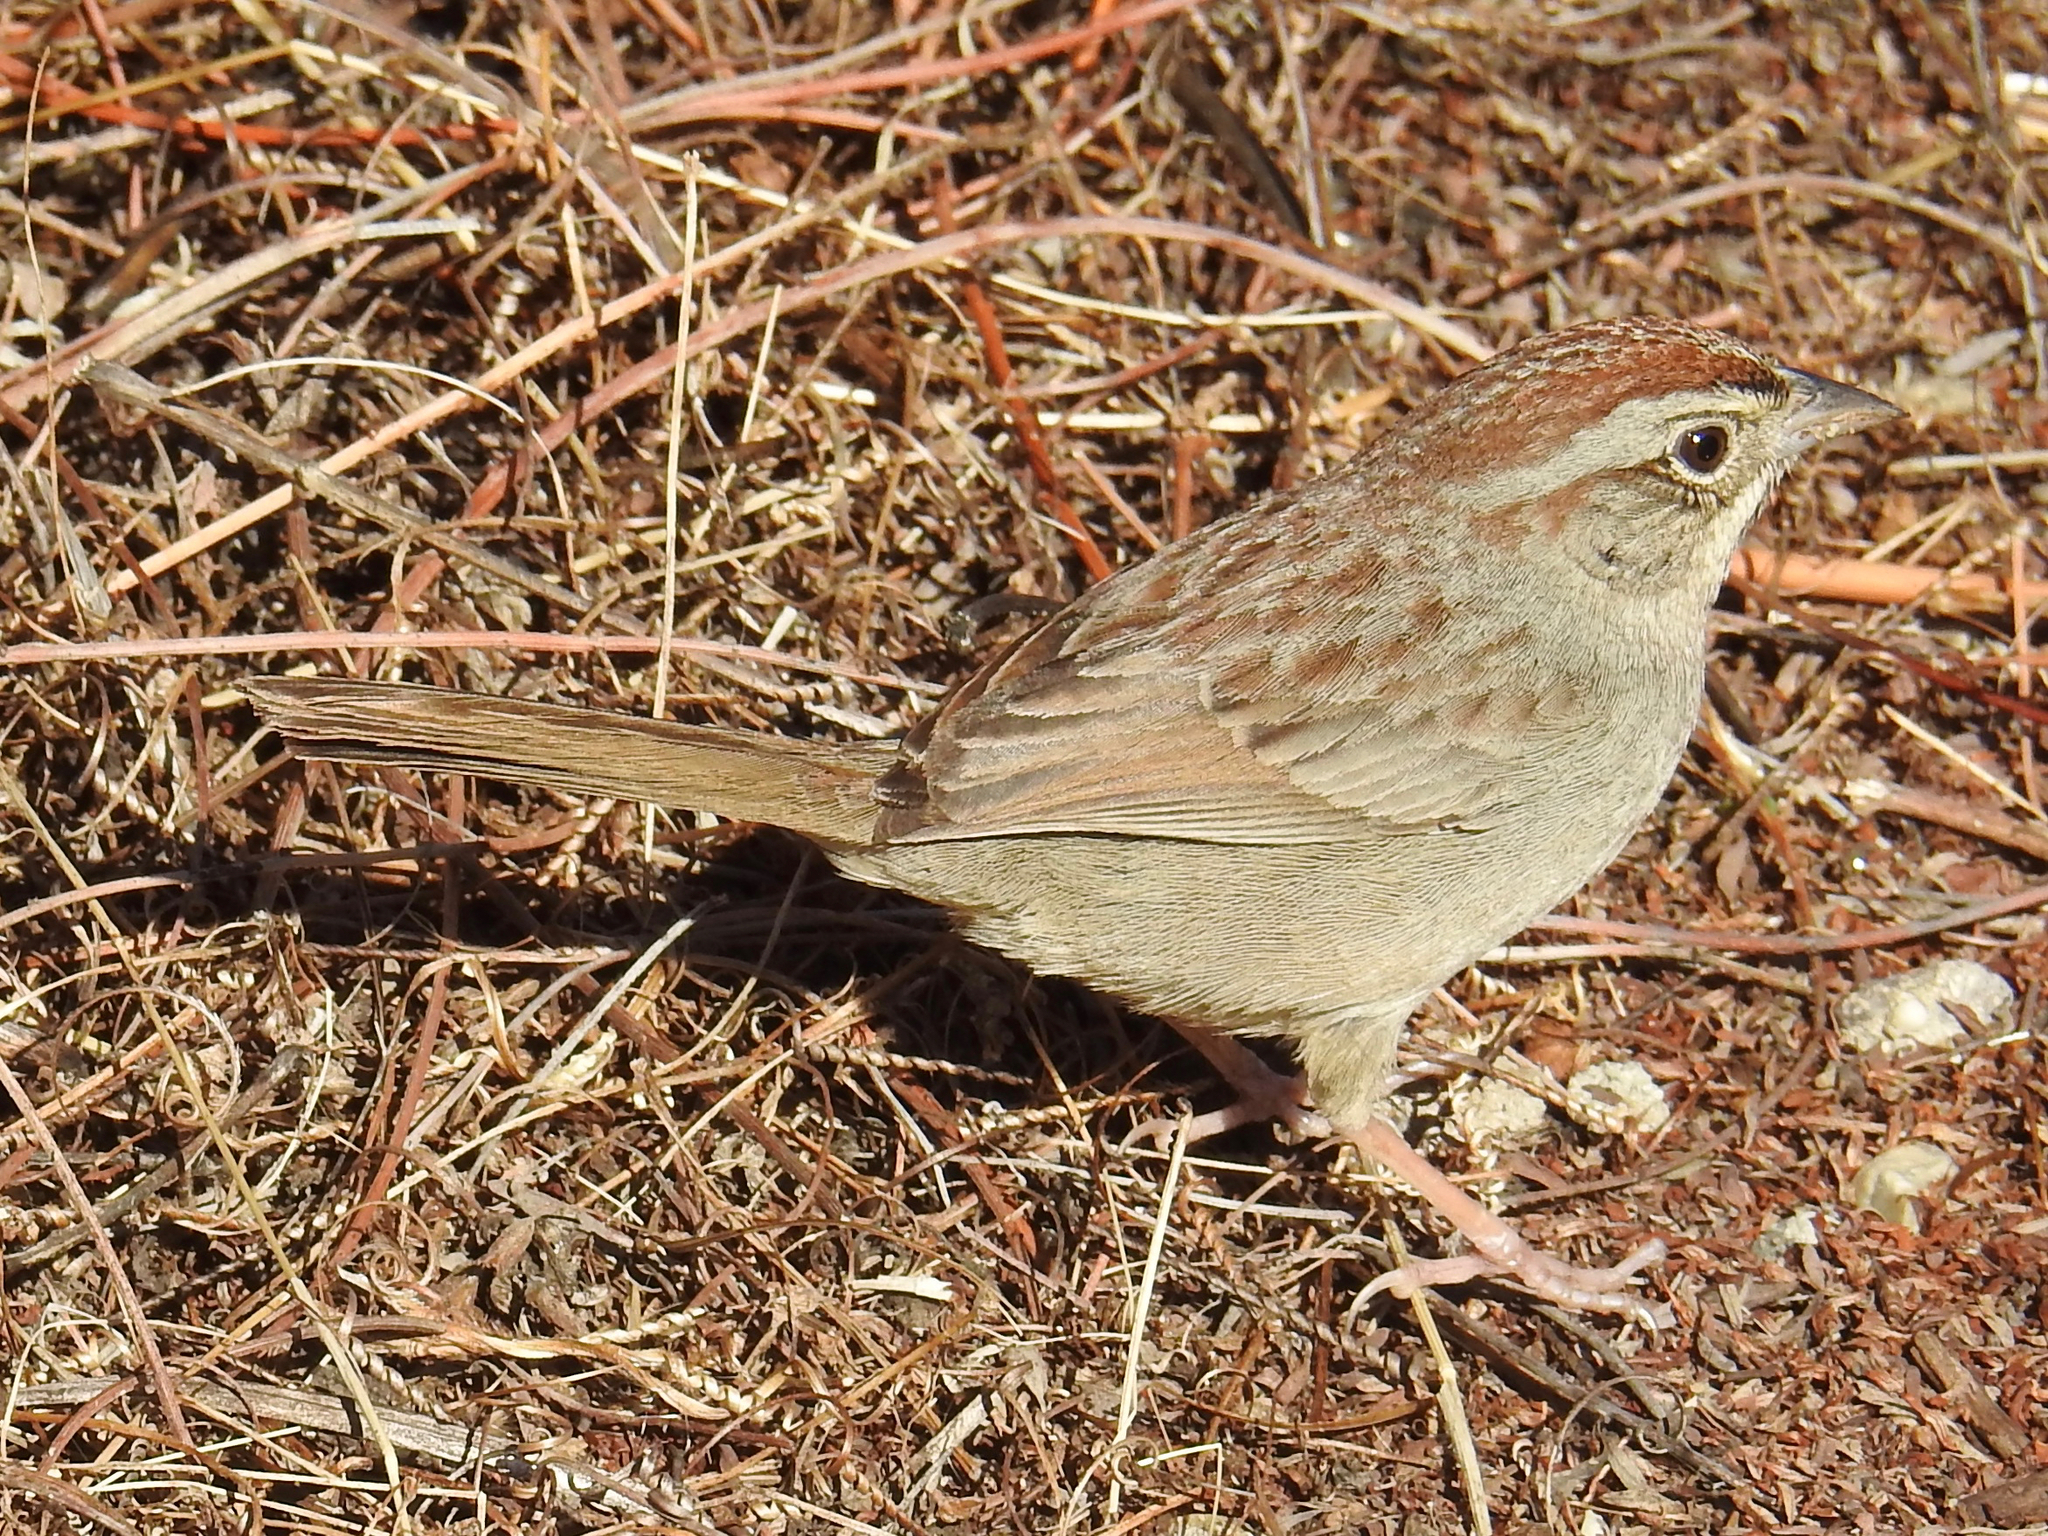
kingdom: Animalia
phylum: Chordata
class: Aves
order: Passeriformes
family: Passerellidae
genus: Aimophila
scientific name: Aimophila ruficeps
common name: Rufous-crowned sparrow
